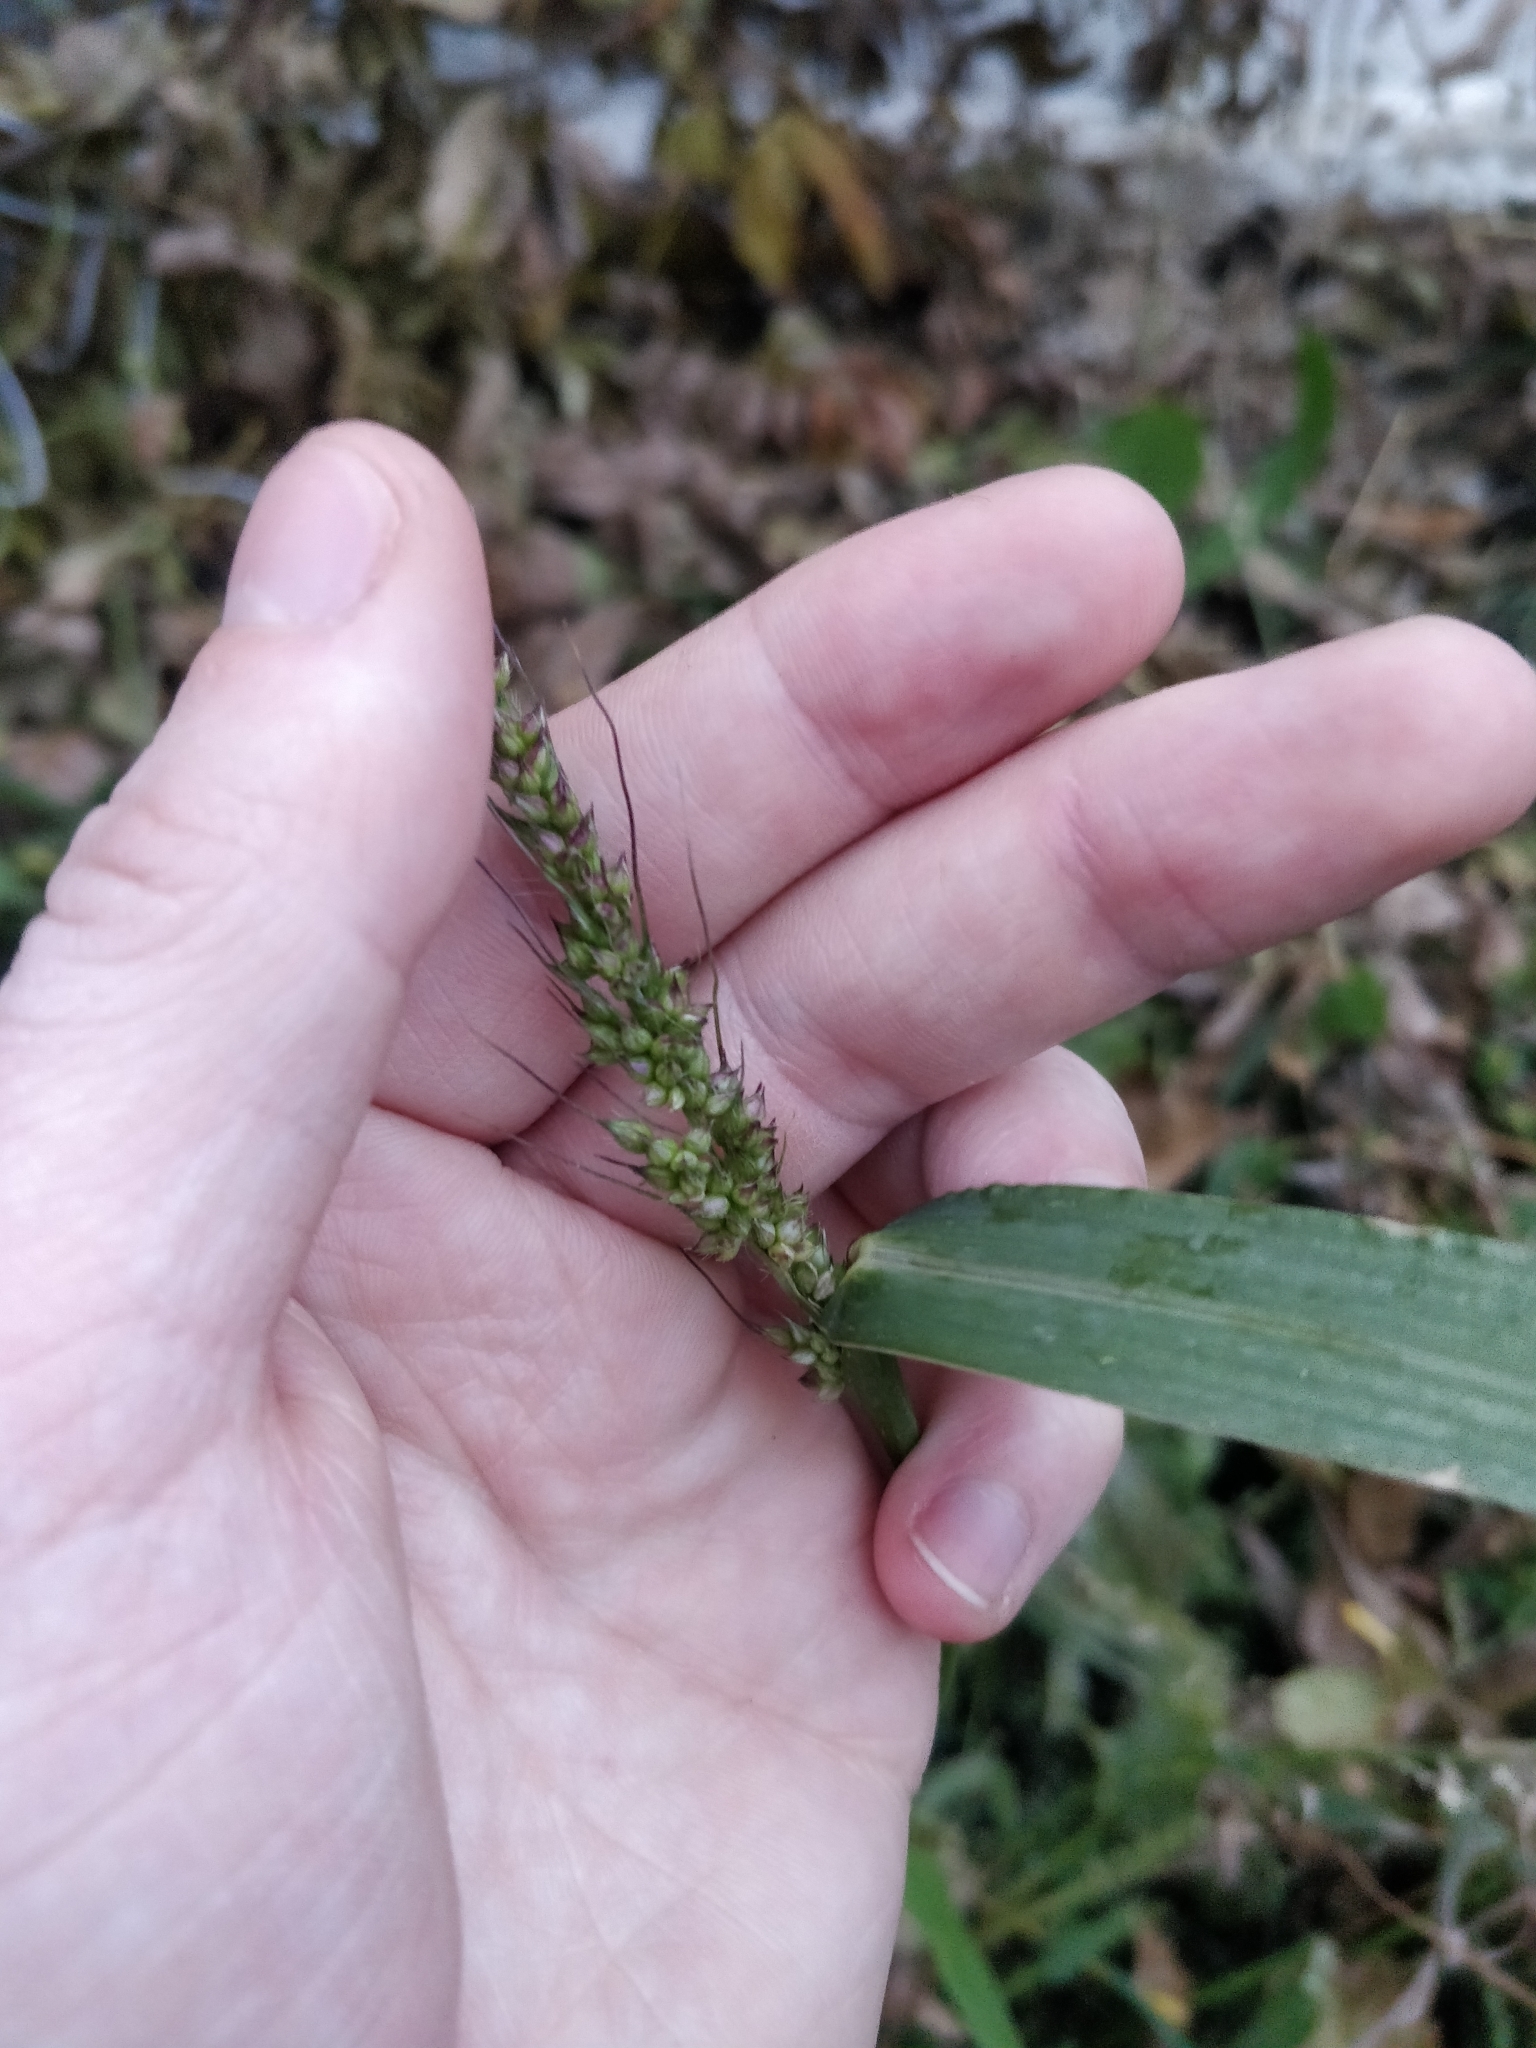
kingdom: Plantae
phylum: Tracheophyta
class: Liliopsida
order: Poales
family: Poaceae
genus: Echinochloa
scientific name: Echinochloa crus-galli
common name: Cockspur
